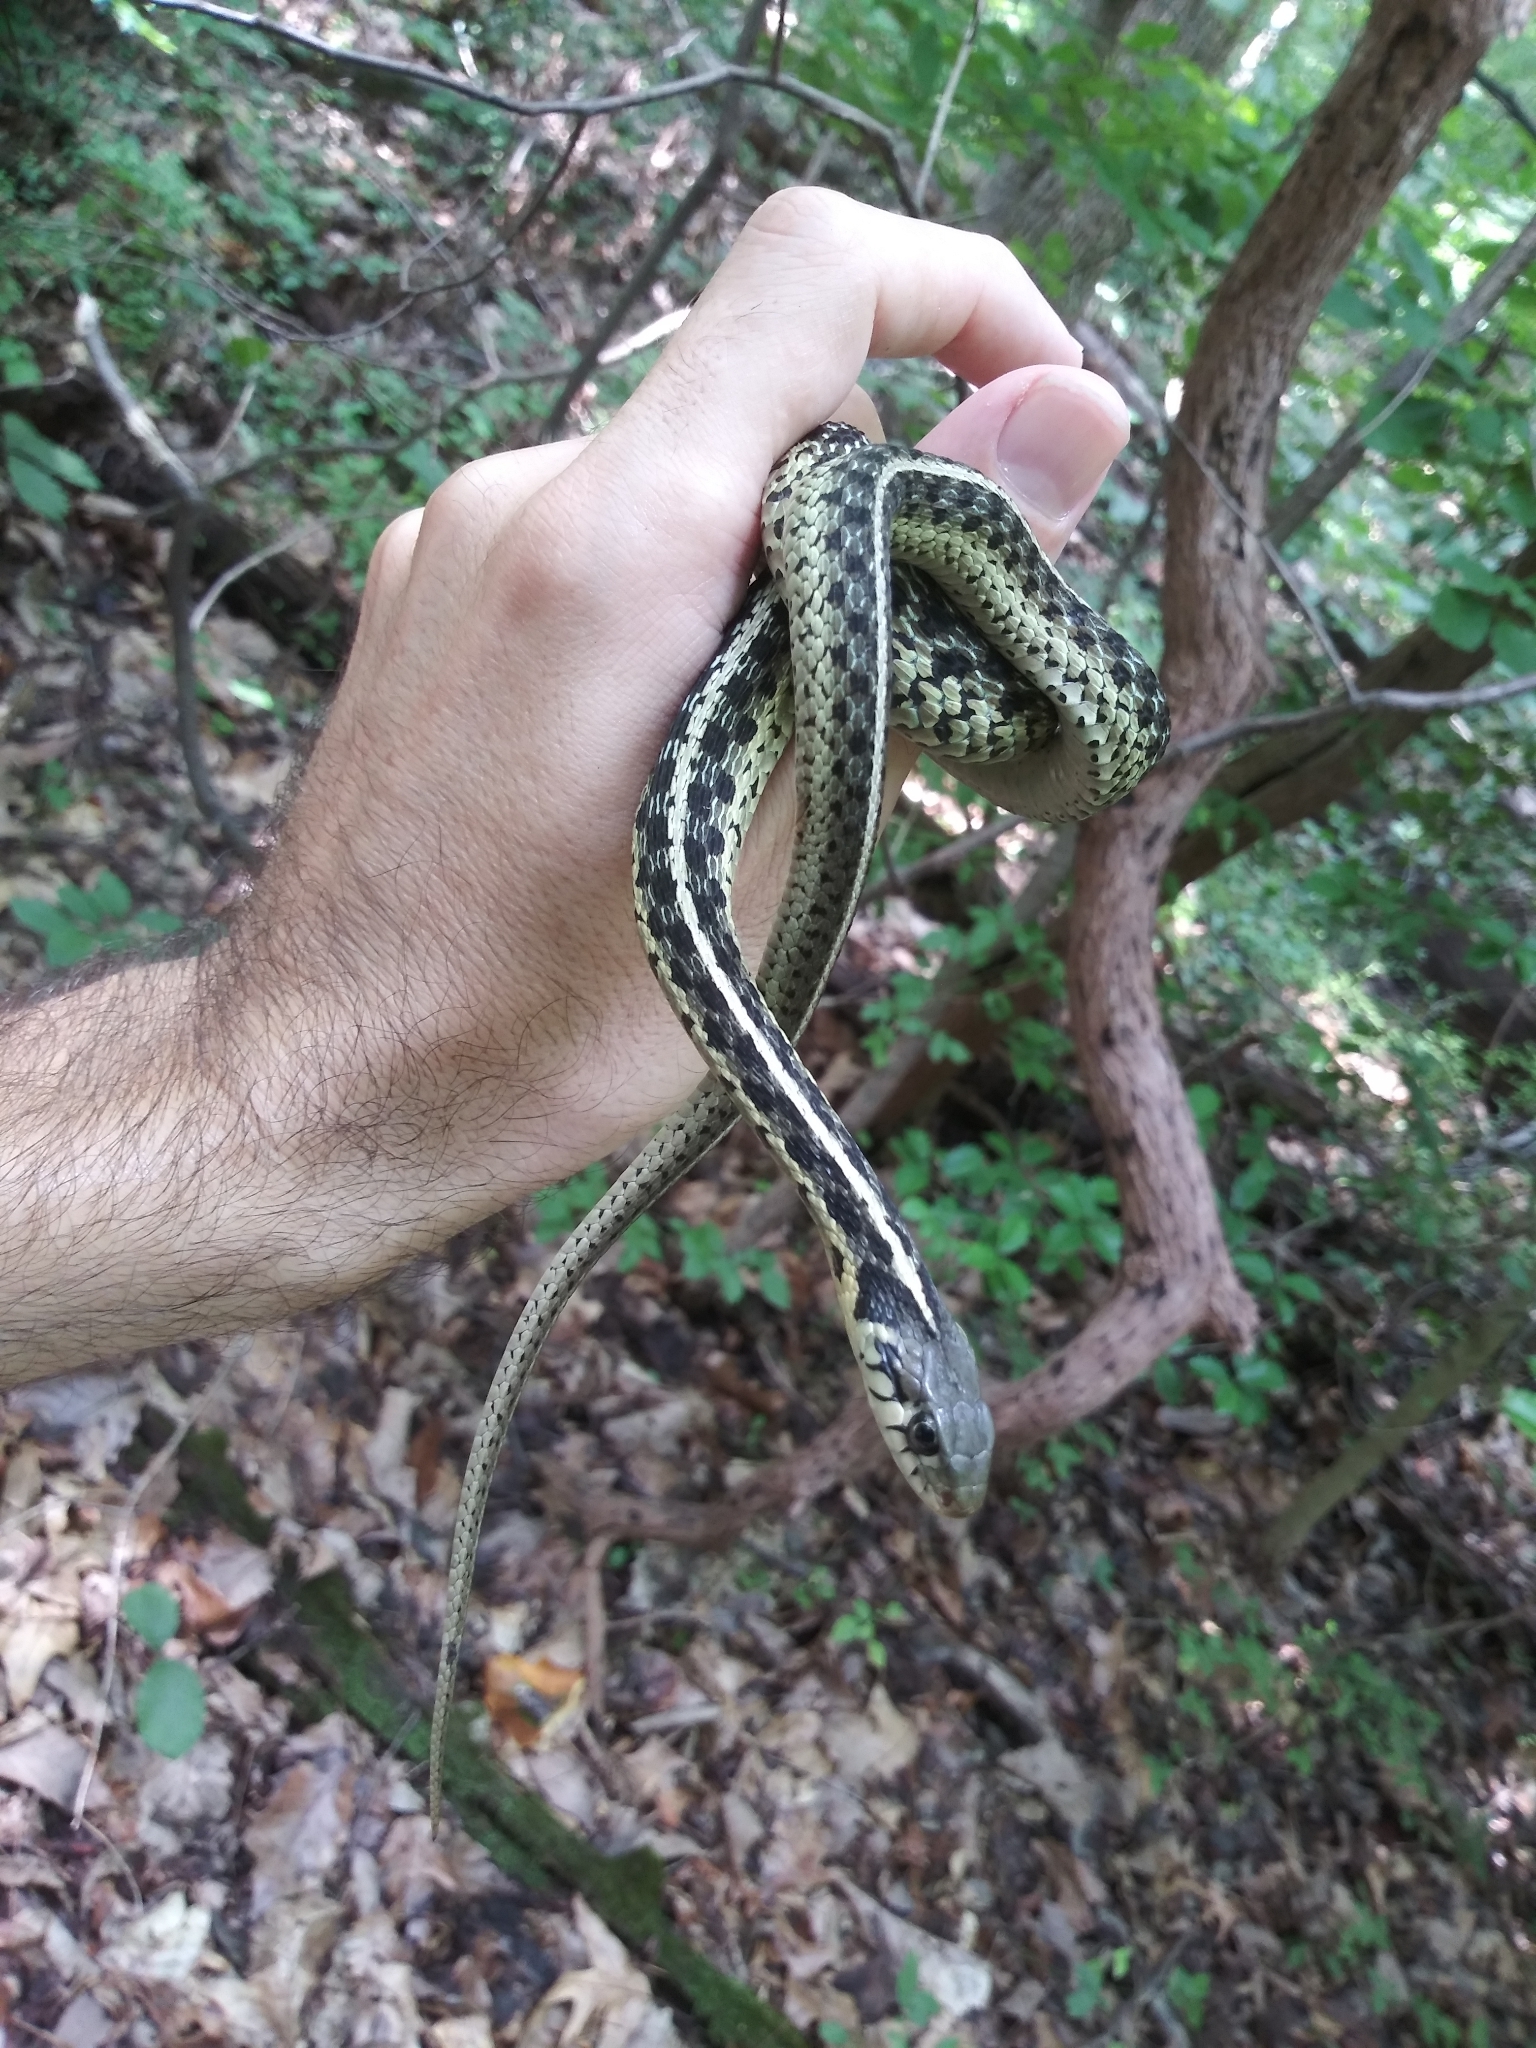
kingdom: Animalia
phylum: Chordata
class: Squamata
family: Colubridae
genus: Thamnophis
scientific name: Thamnophis sirtalis
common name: Common garter snake
